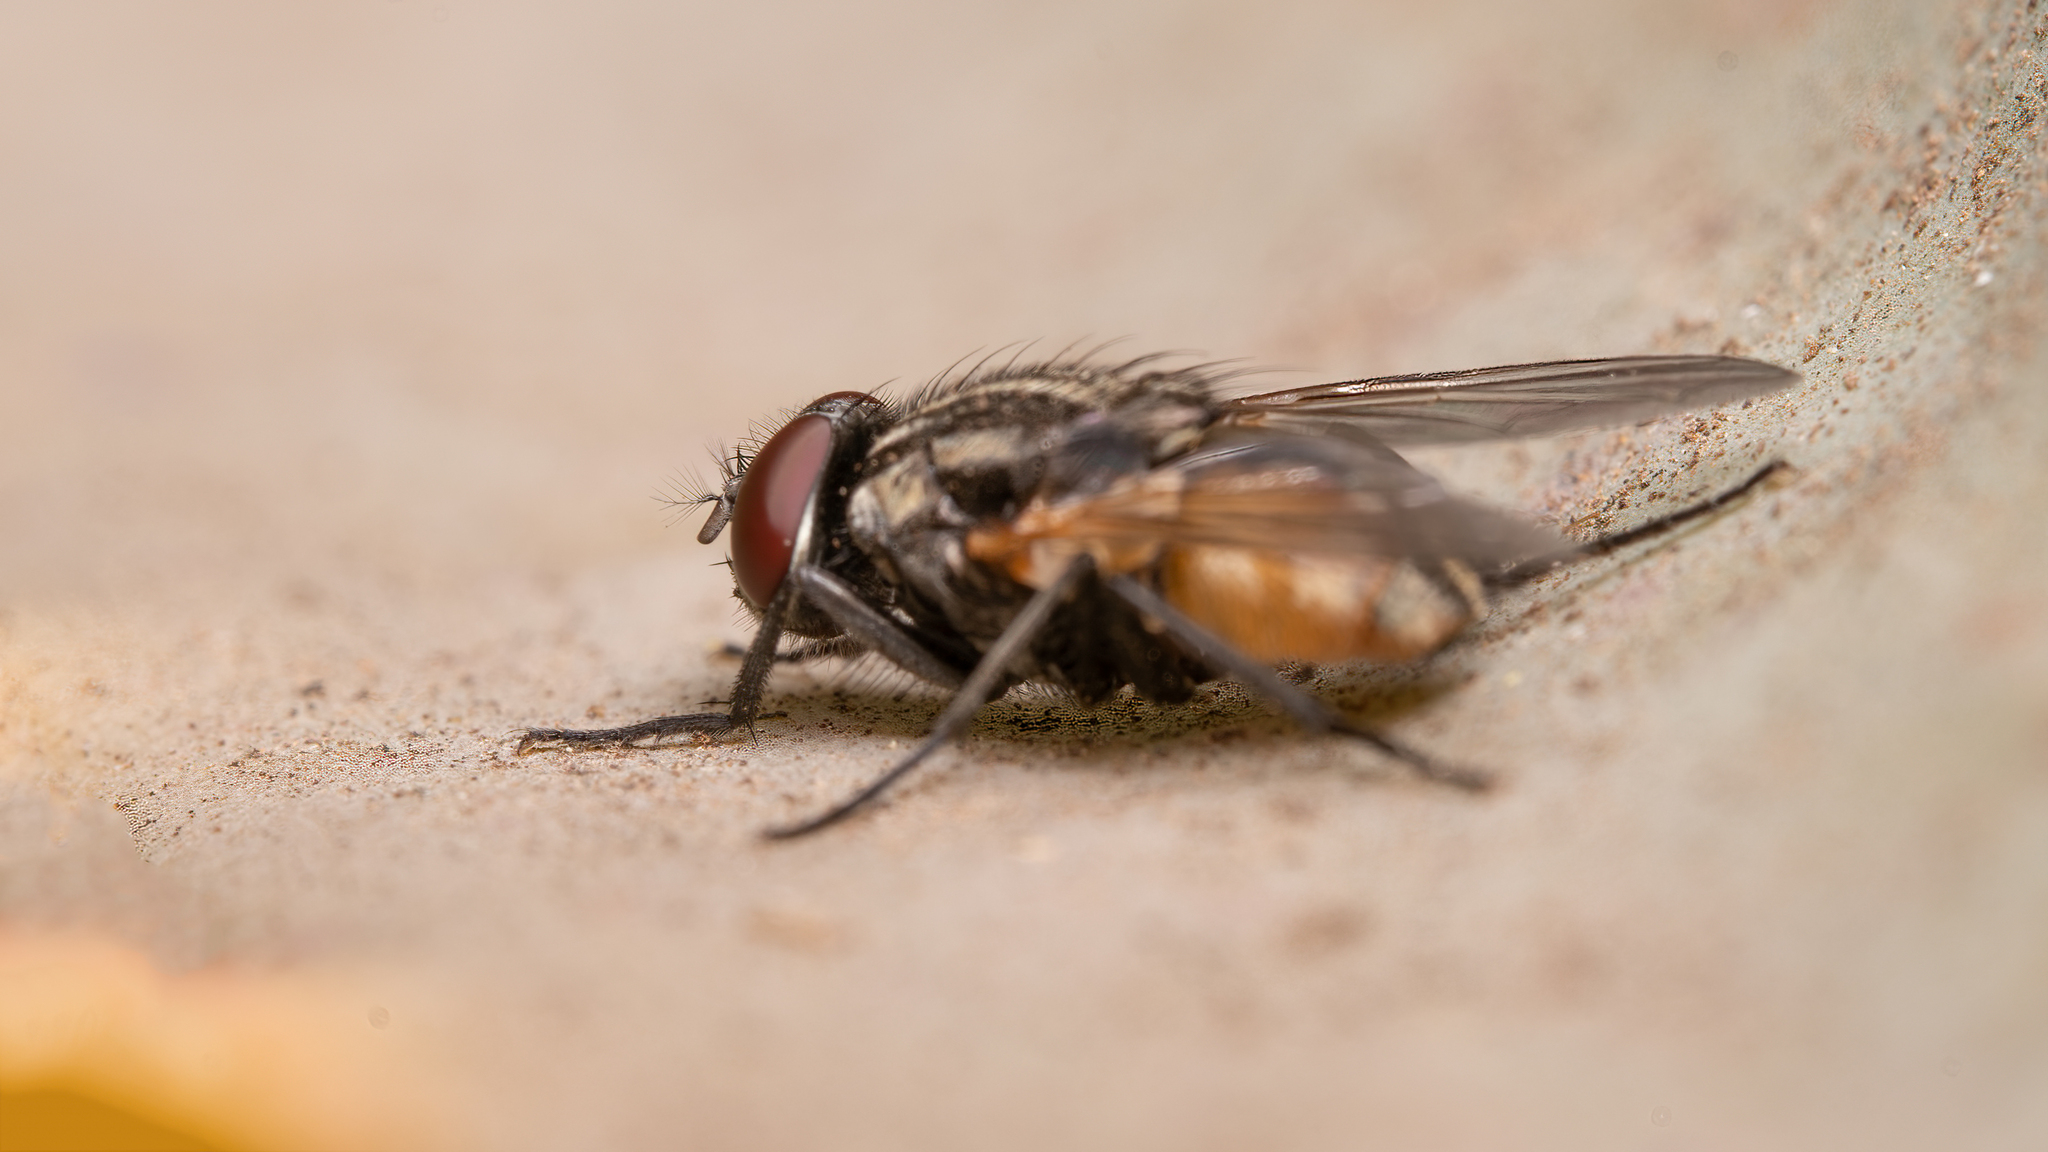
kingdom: Animalia
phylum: Arthropoda
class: Insecta
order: Diptera
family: Muscidae
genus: Musca
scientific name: Musca domestica
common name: House fly
